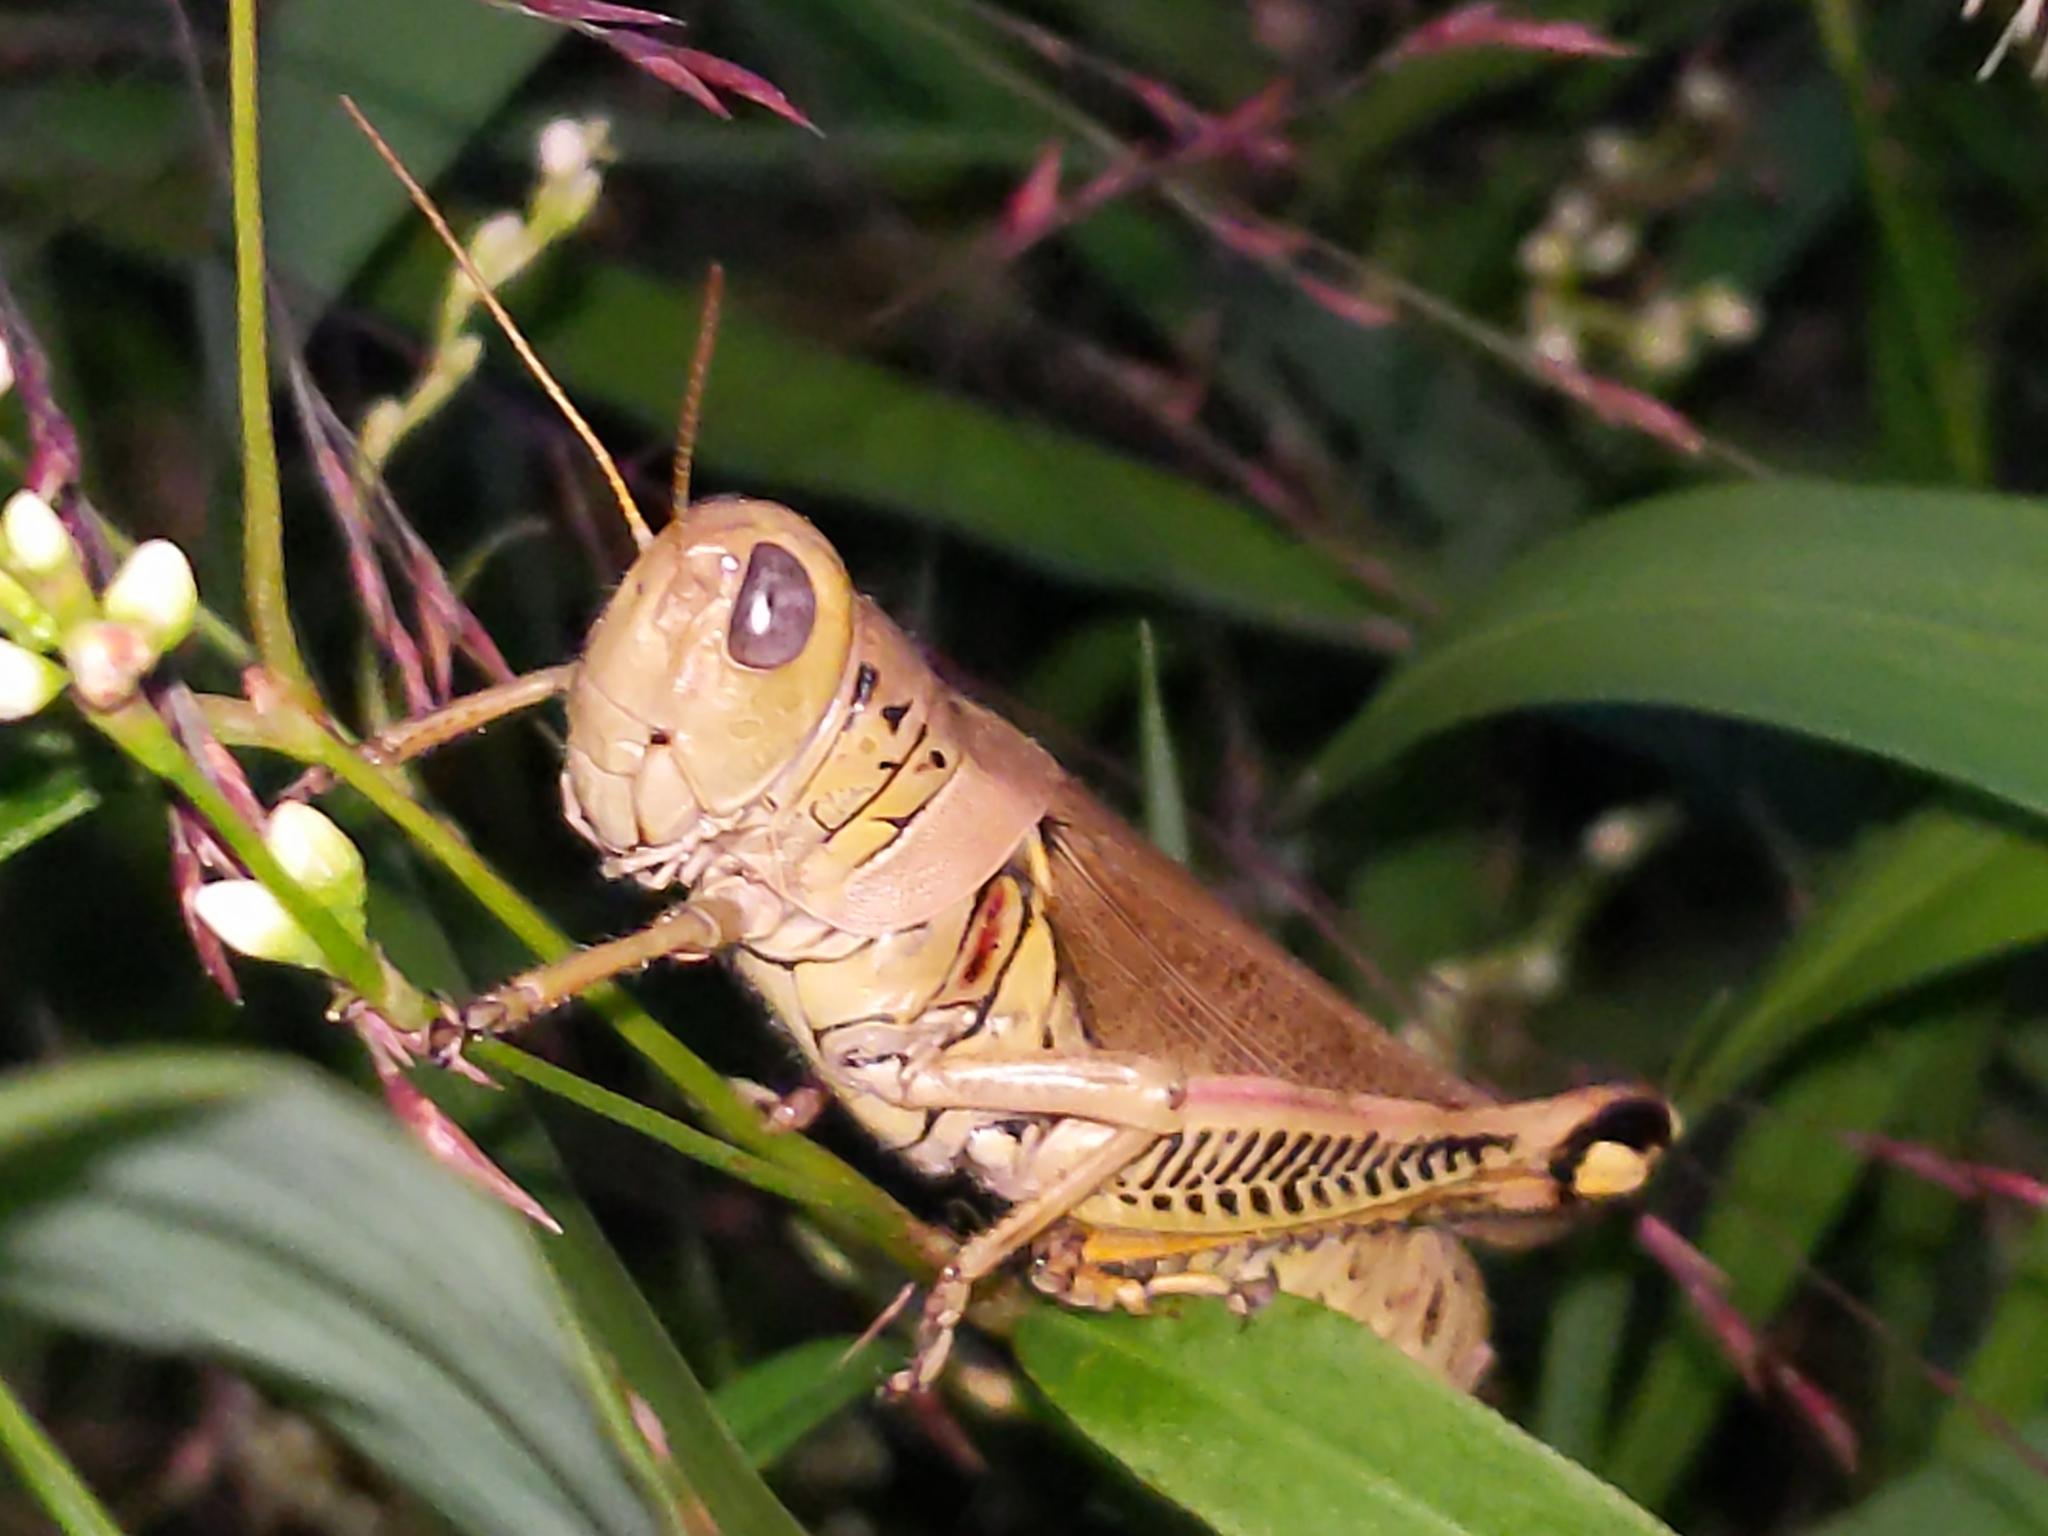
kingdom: Animalia
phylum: Arthropoda
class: Insecta
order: Orthoptera
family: Acrididae
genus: Melanoplus
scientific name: Melanoplus differentialis
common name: Differential grasshopper
